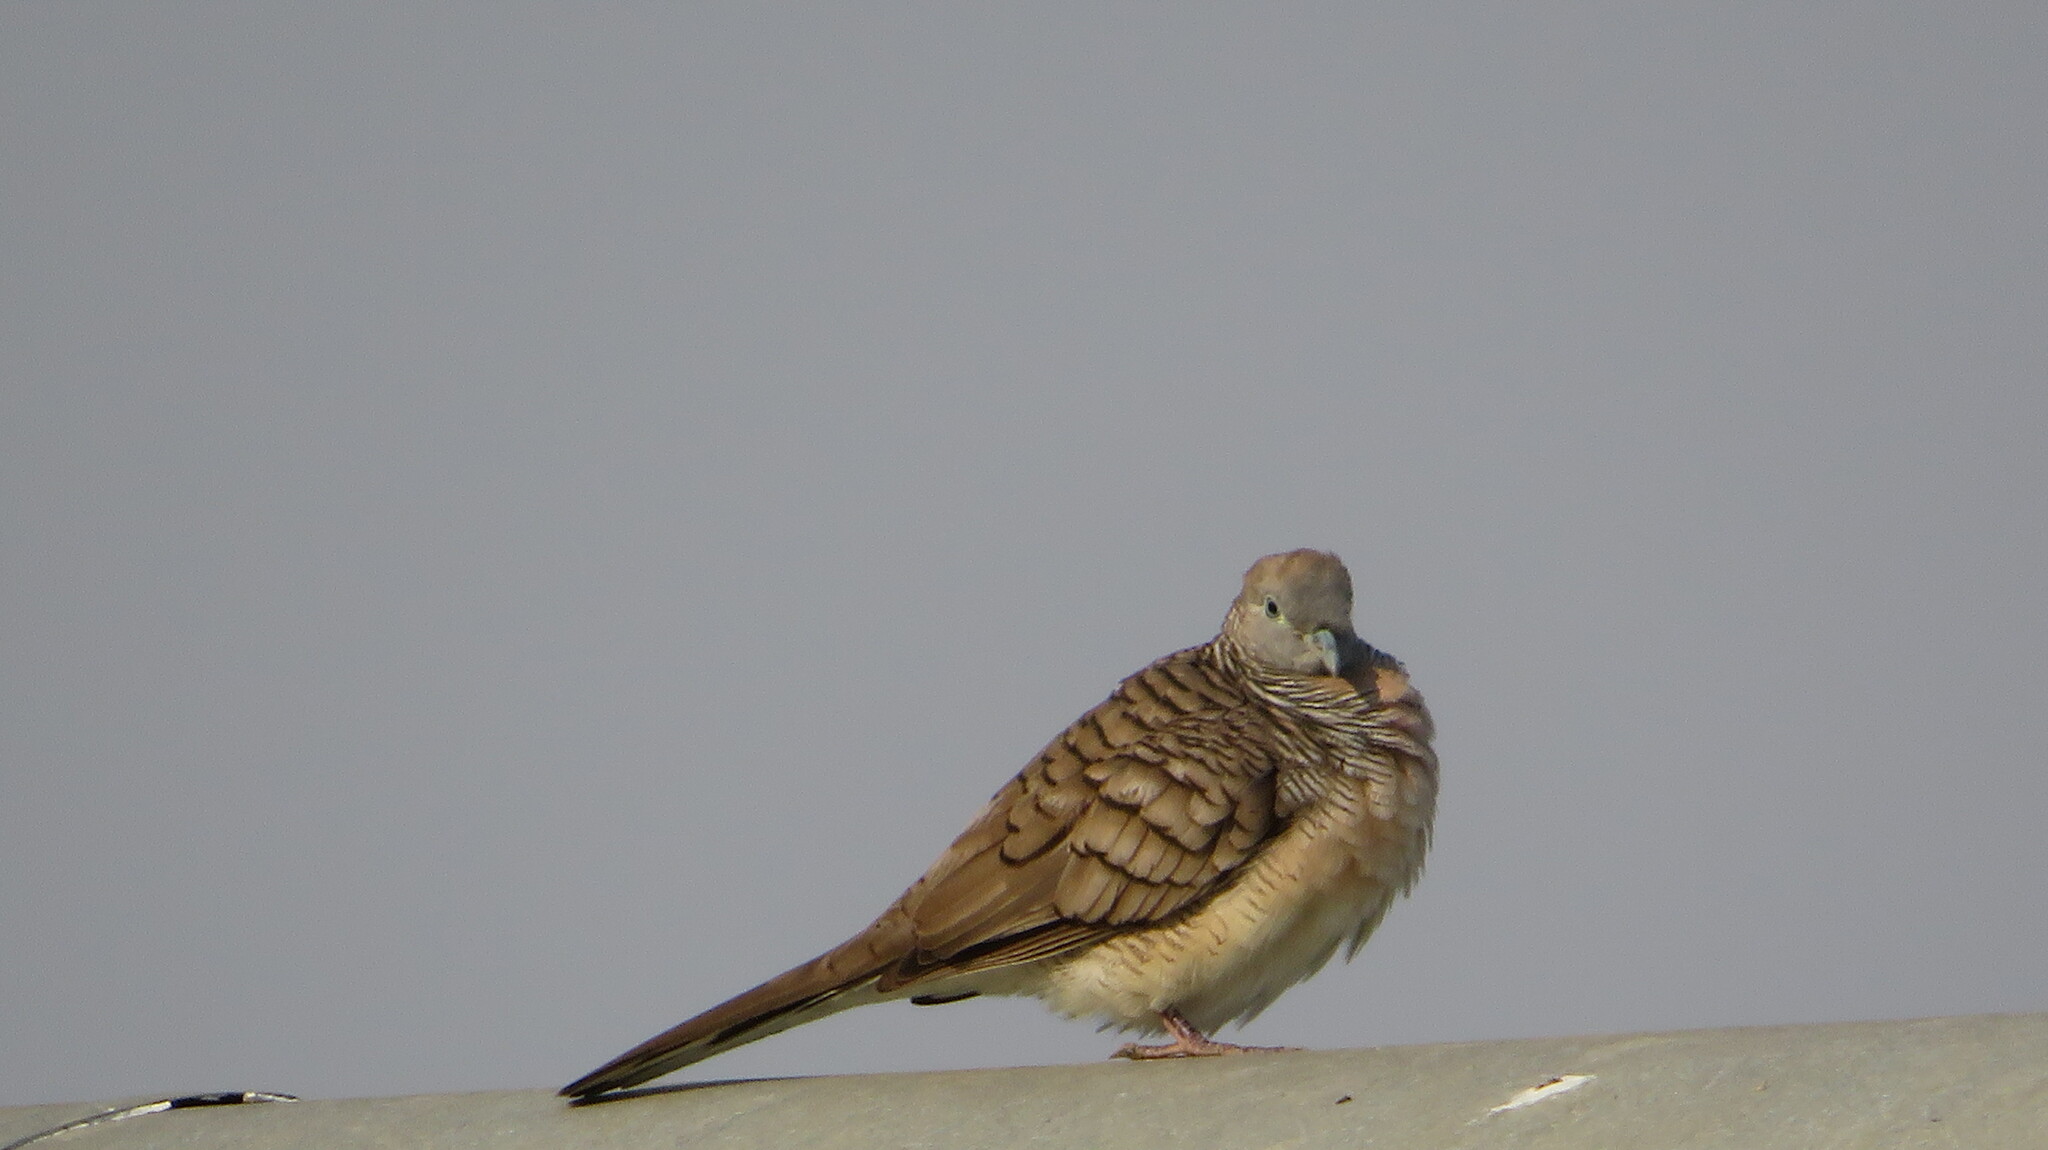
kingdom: Animalia
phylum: Chordata
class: Aves
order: Columbiformes
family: Columbidae
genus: Geopelia
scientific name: Geopelia striata
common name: Zebra dove
